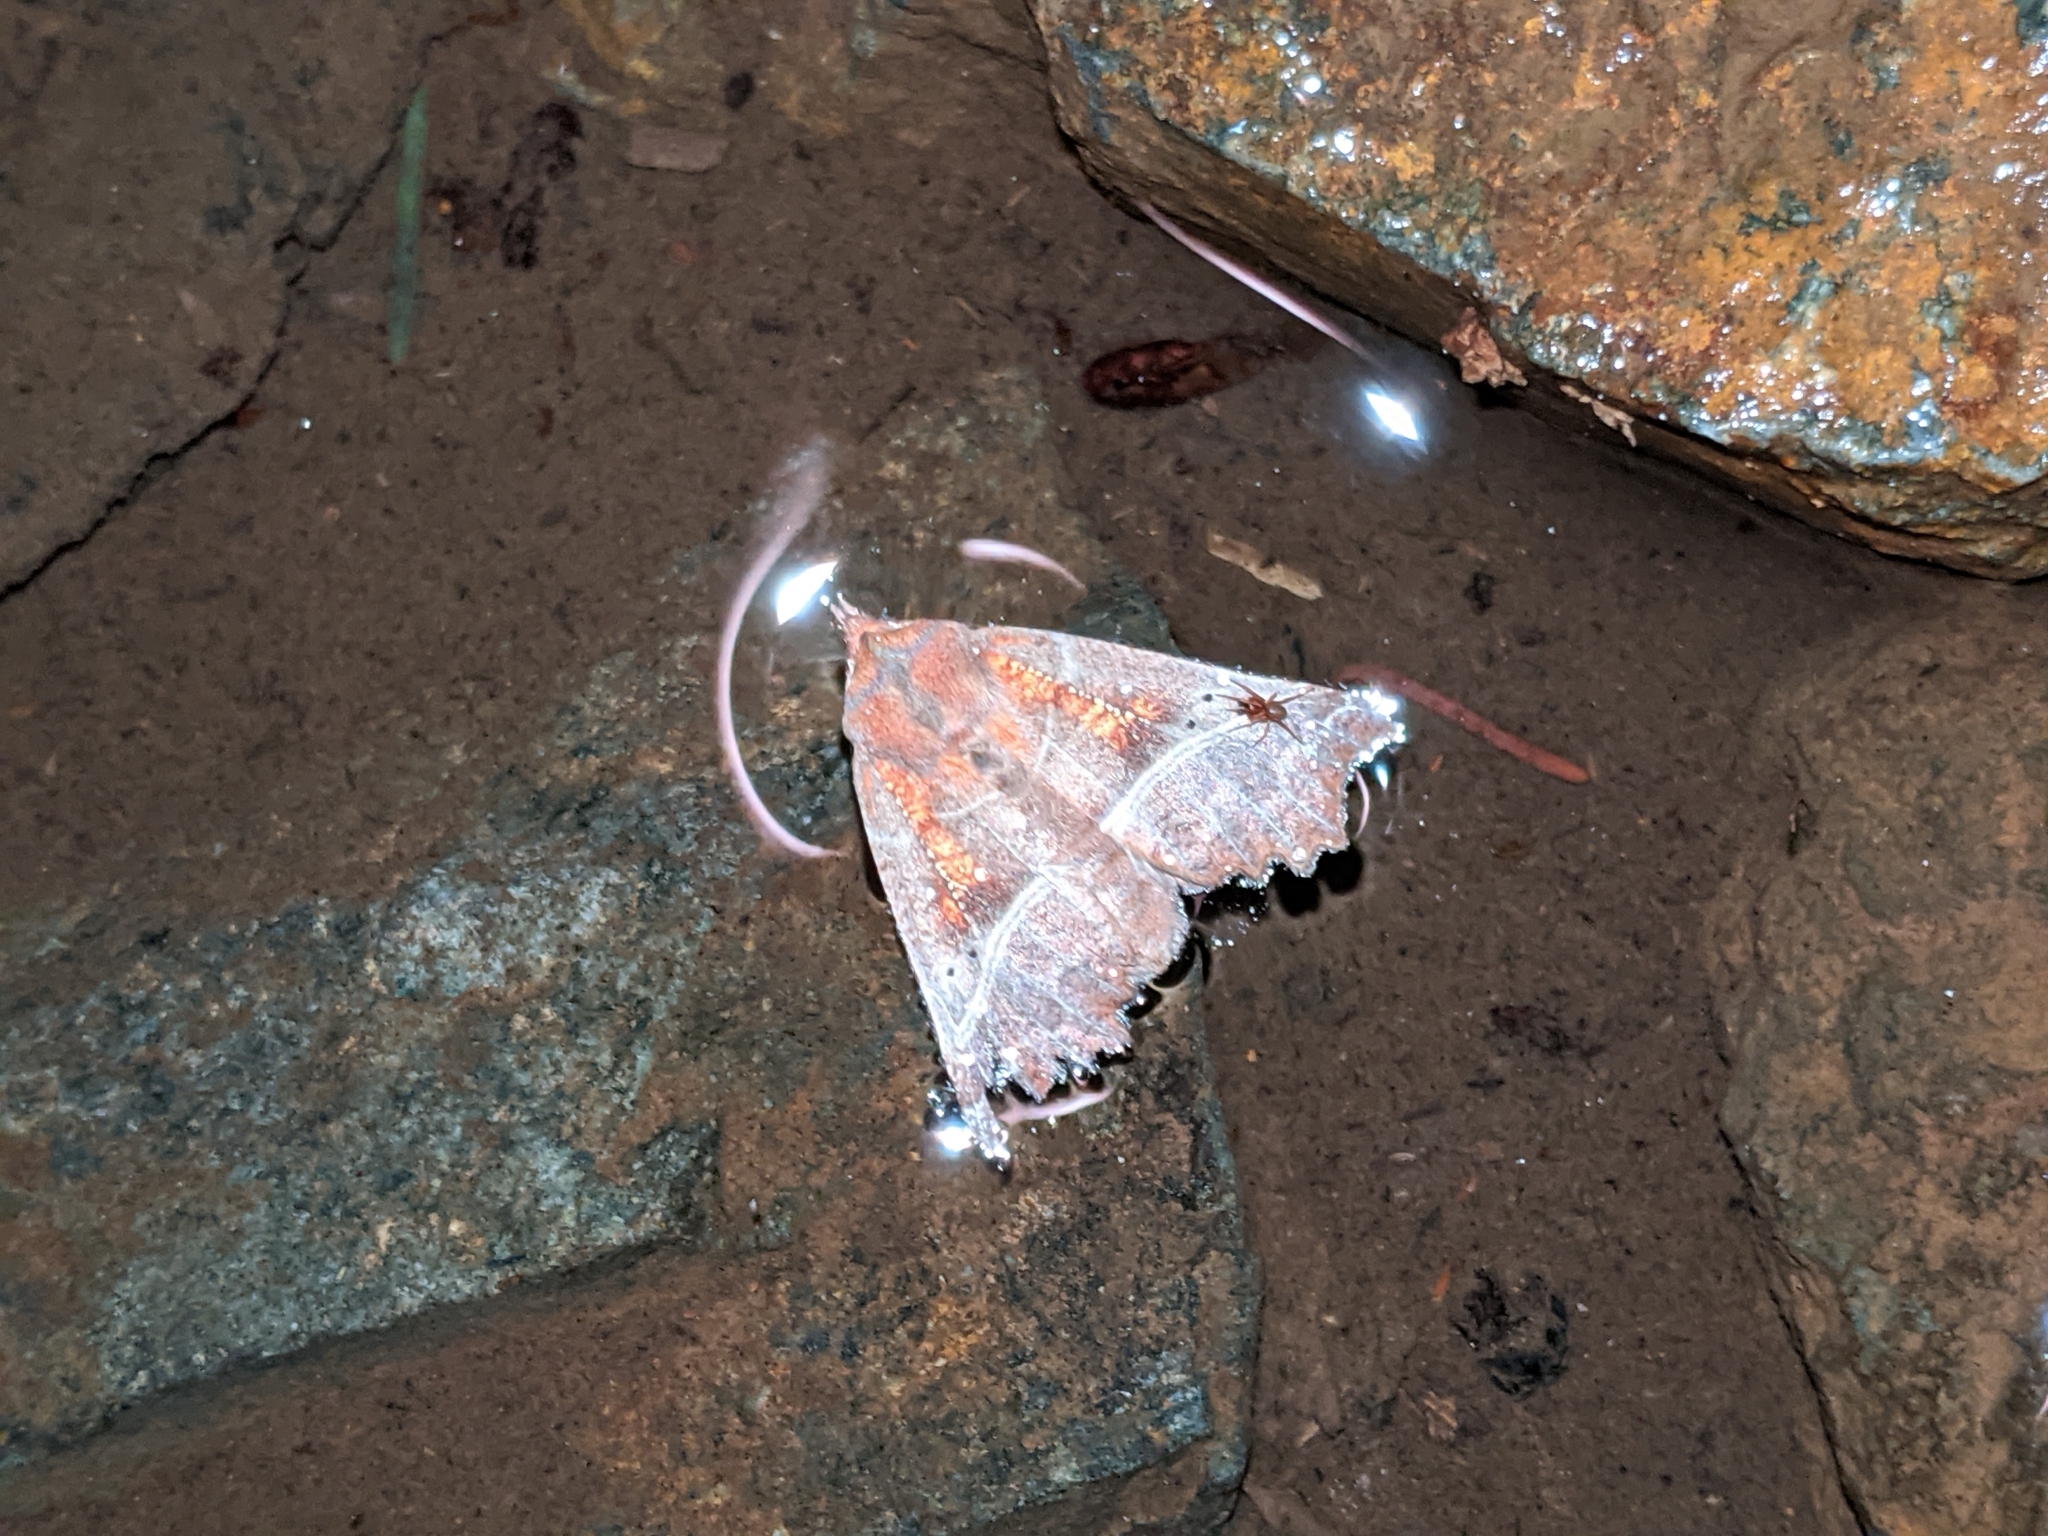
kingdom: Animalia
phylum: Arthropoda
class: Insecta
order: Lepidoptera
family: Erebidae
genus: Scoliopteryx
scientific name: Scoliopteryx libatrix
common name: Herald
